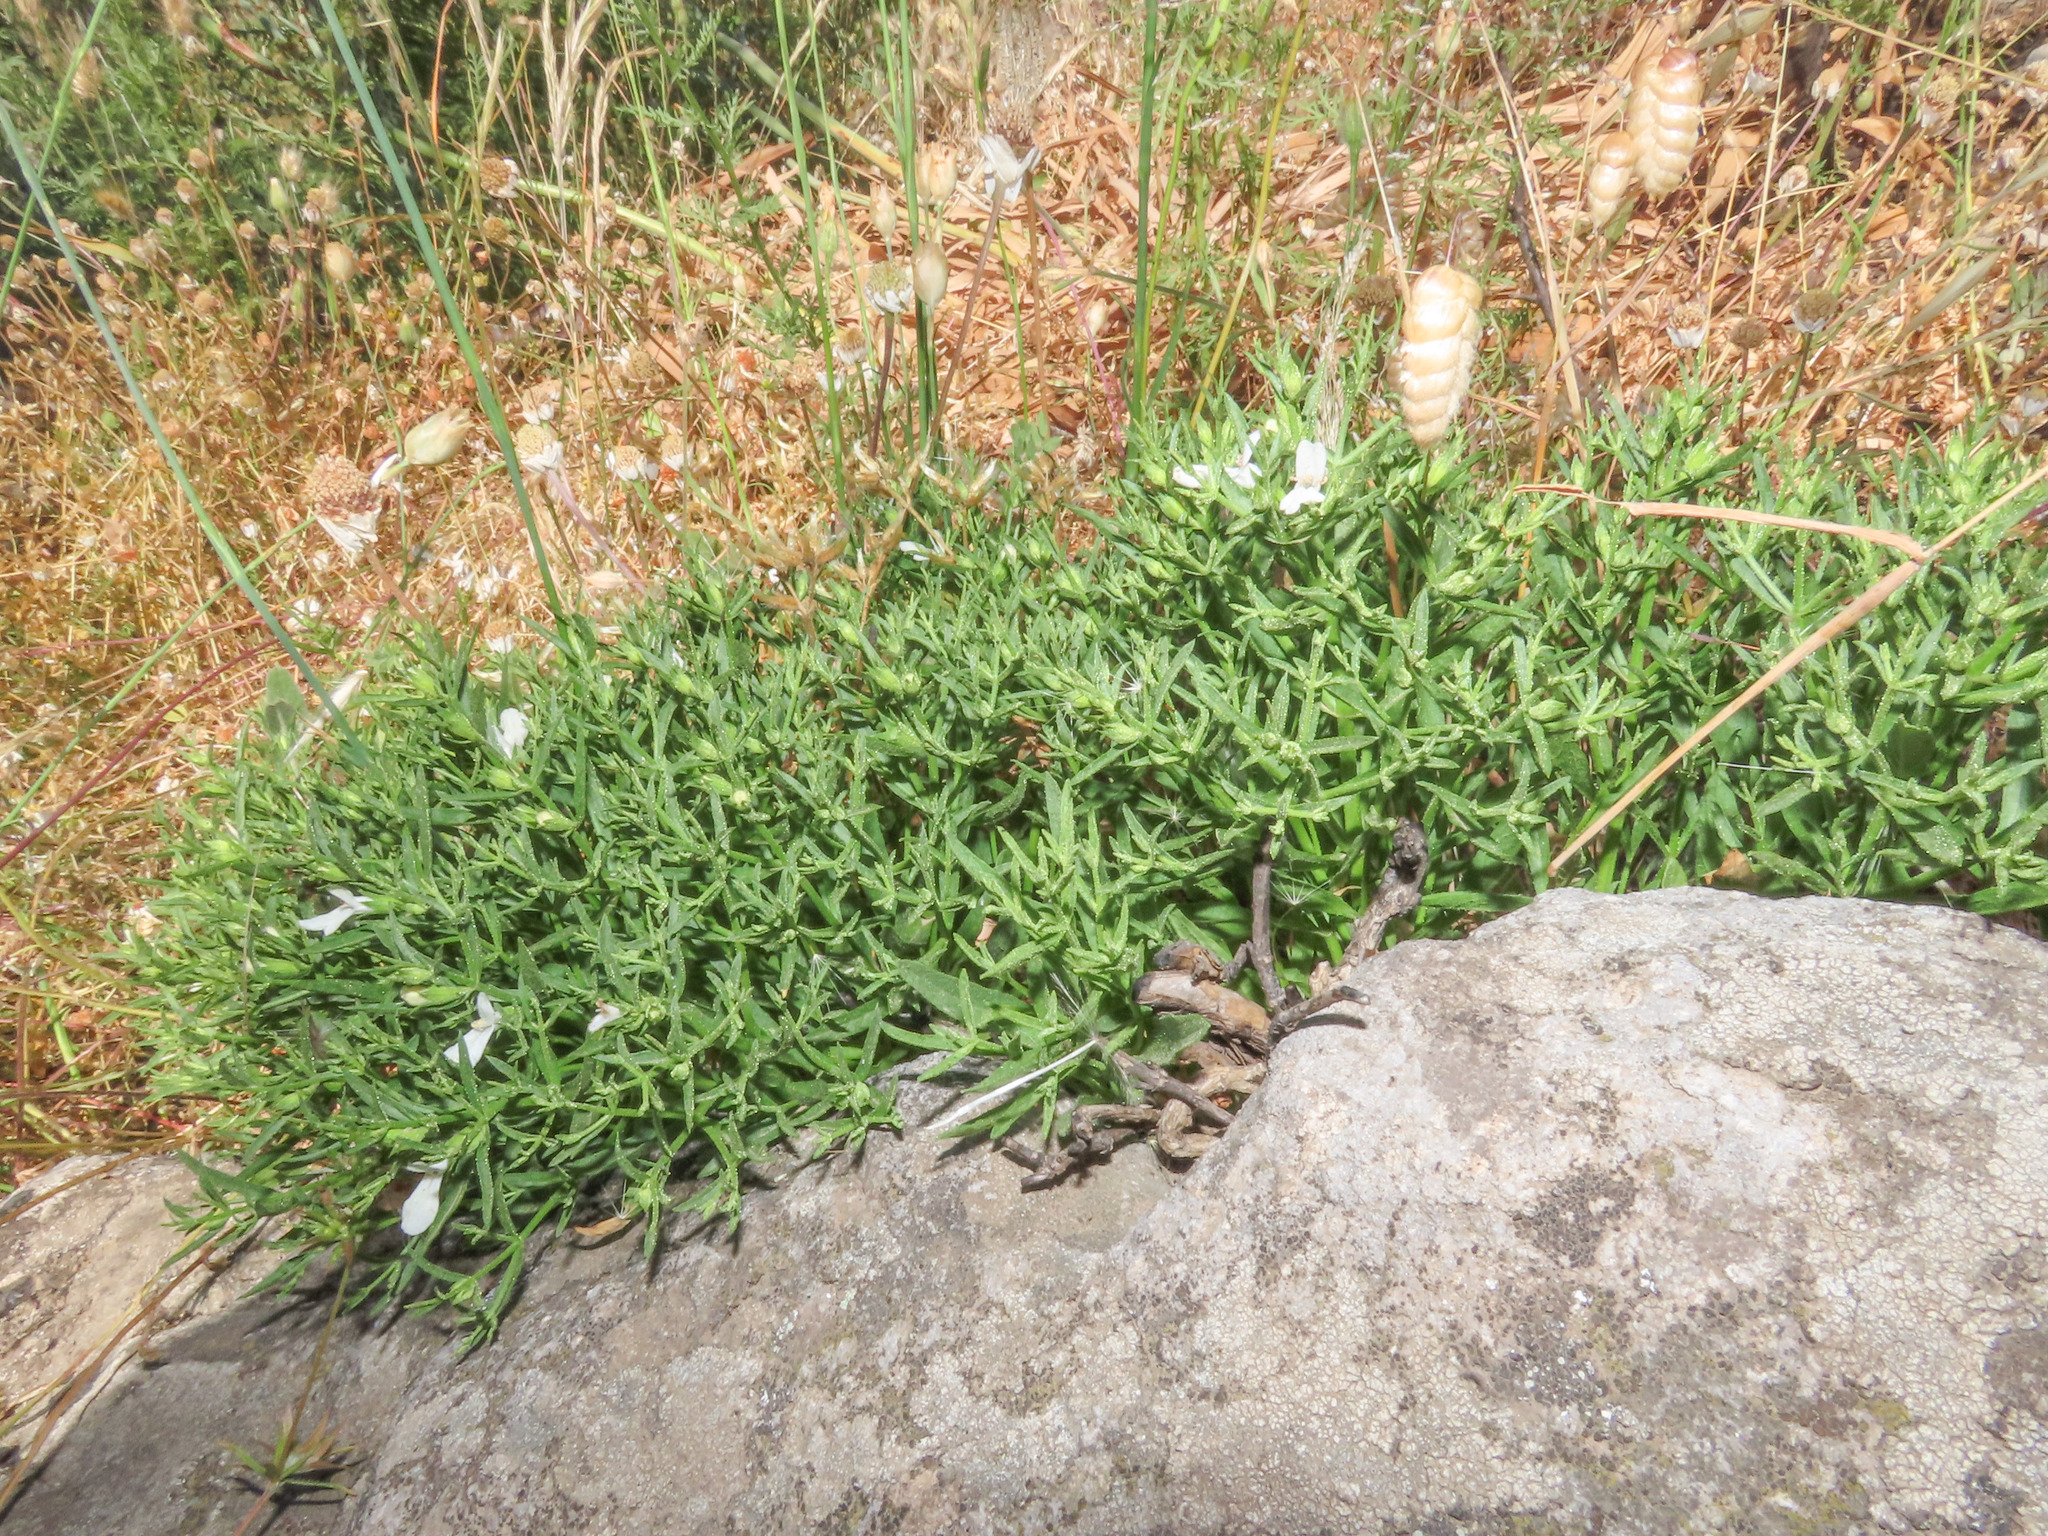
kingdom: Plantae
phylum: Tracheophyta
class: Magnoliopsida
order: Lamiales
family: Lamiaceae
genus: Stachys
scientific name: Stachys glutinosa
